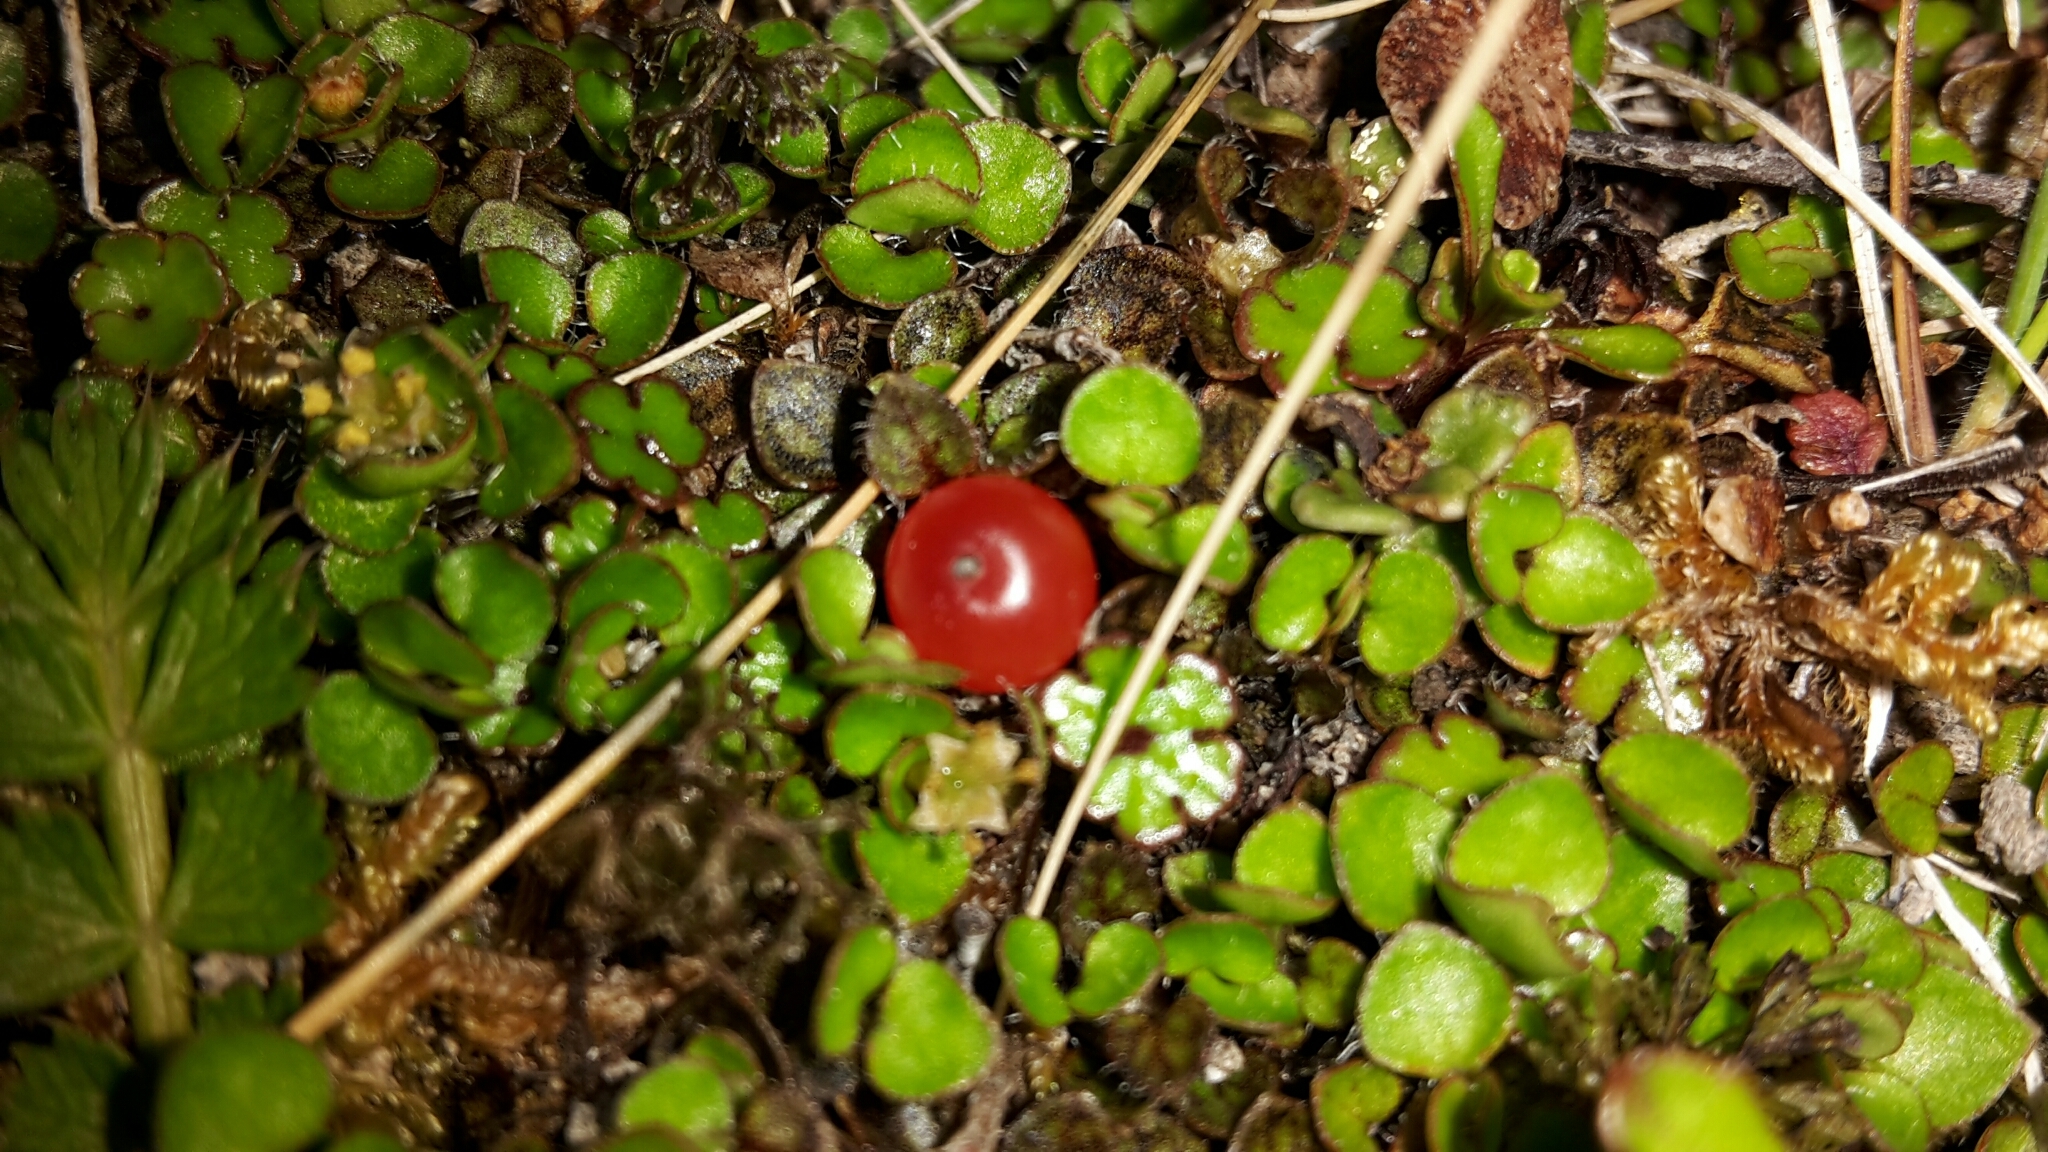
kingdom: Plantae
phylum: Tracheophyta
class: Magnoliopsida
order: Gentianales
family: Rubiaceae
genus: Nertera
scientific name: Nertera ciliata
